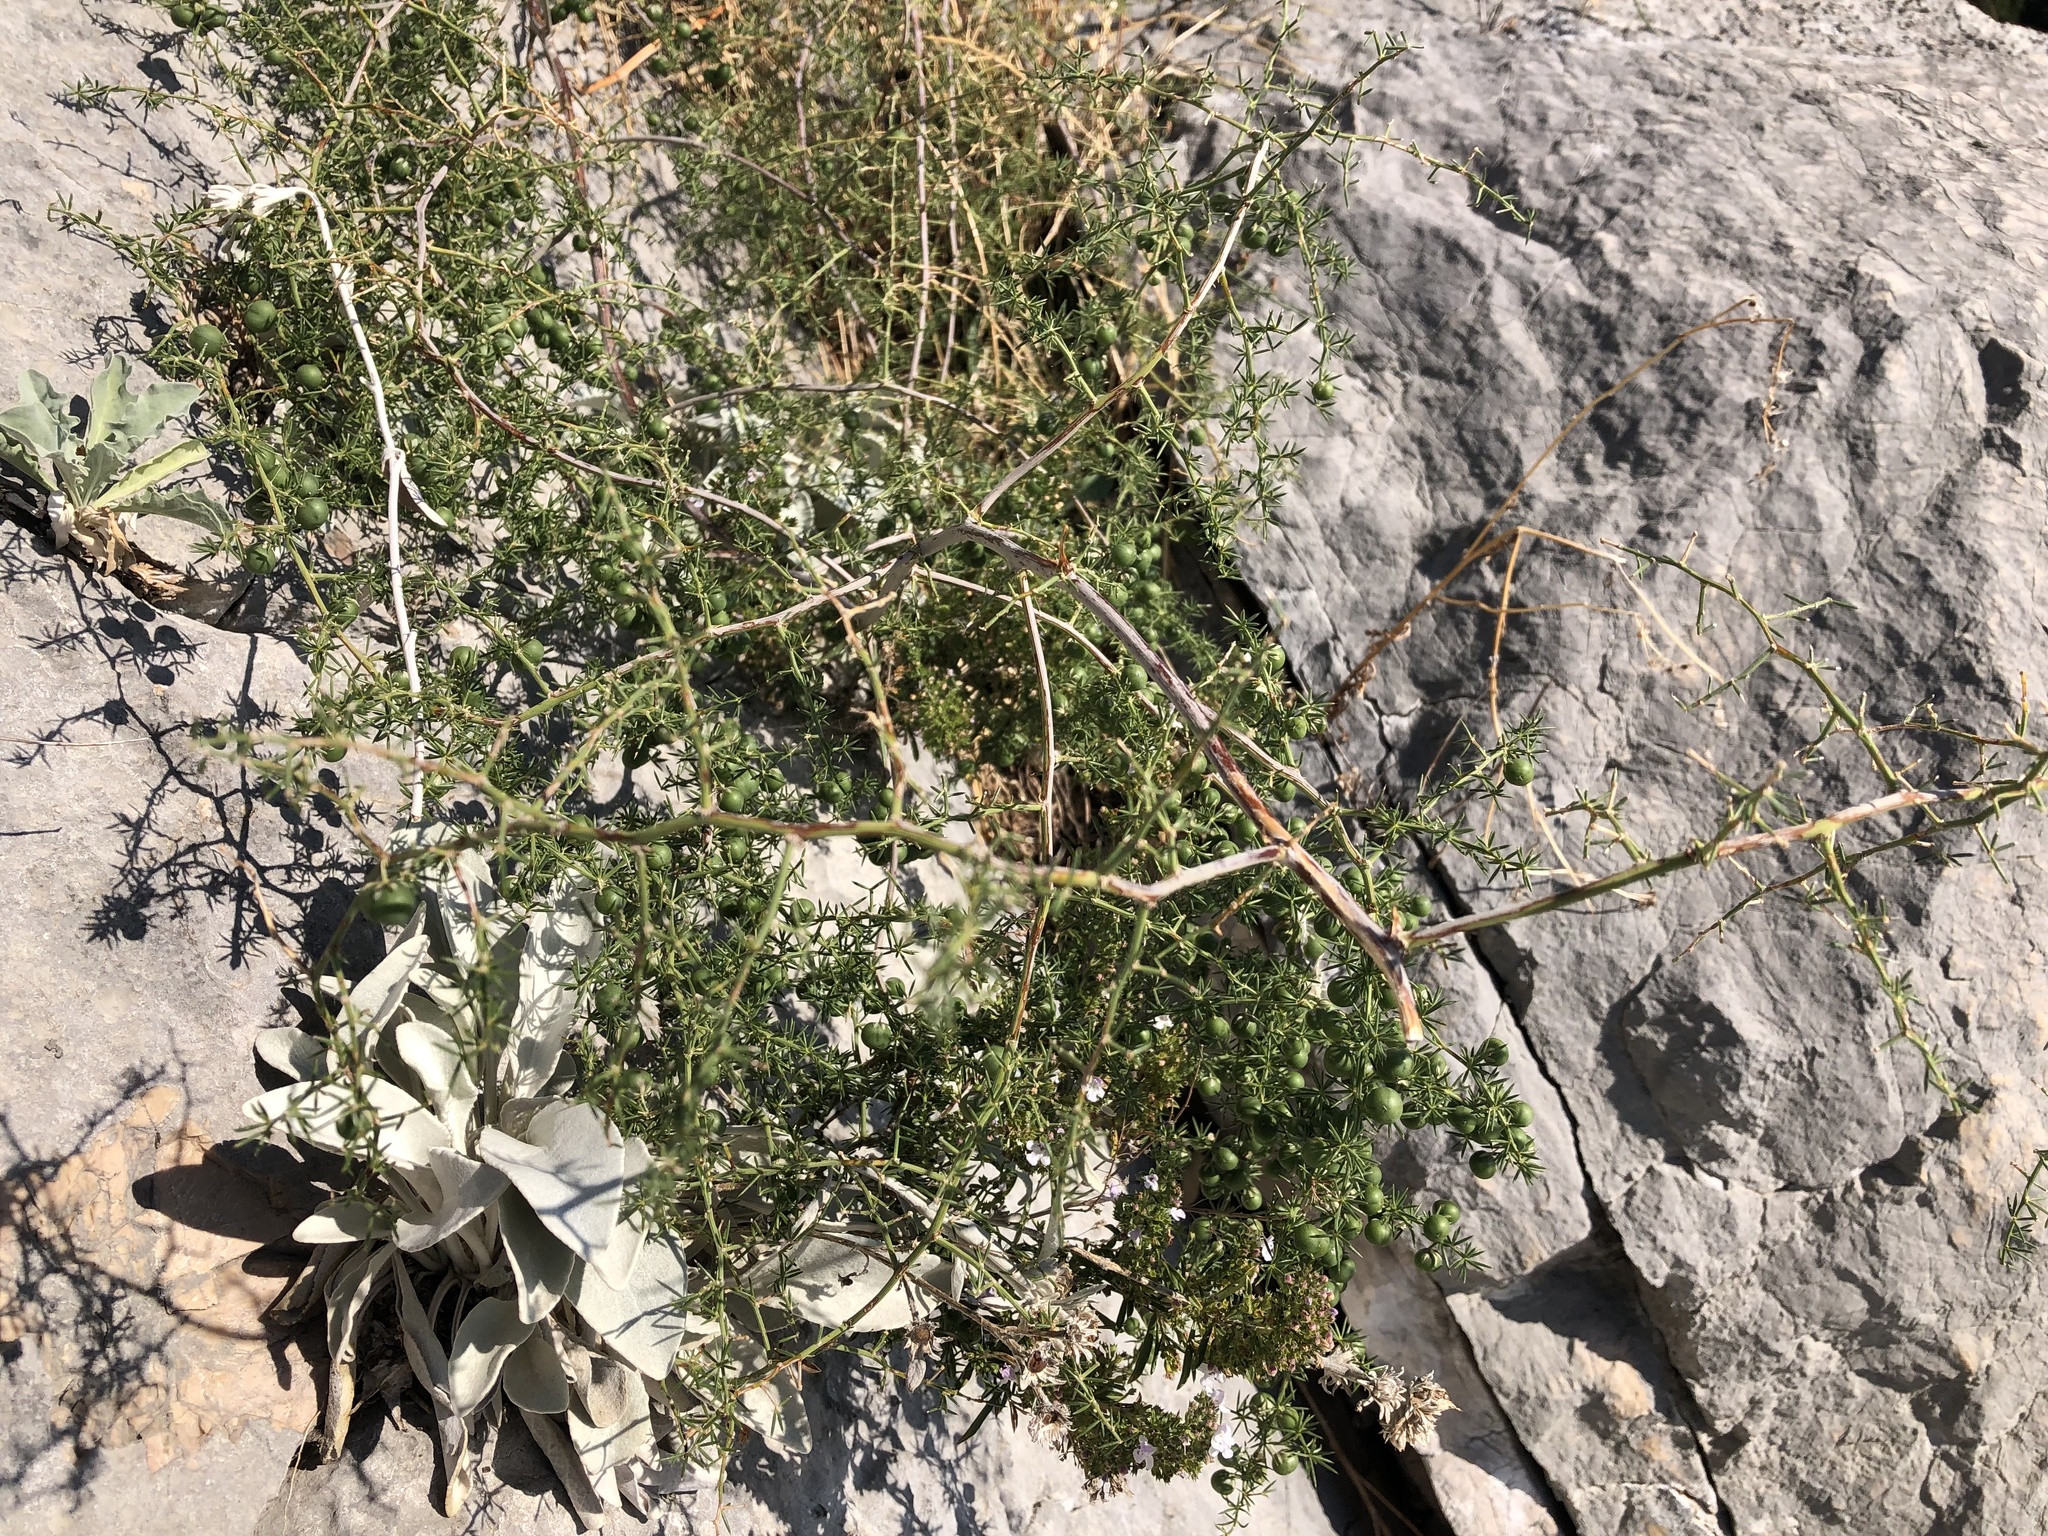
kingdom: Plantae
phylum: Tracheophyta
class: Liliopsida
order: Asparagales
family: Asparagaceae
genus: Asparagus
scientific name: Asparagus acutifolius
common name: Wild asparagus
